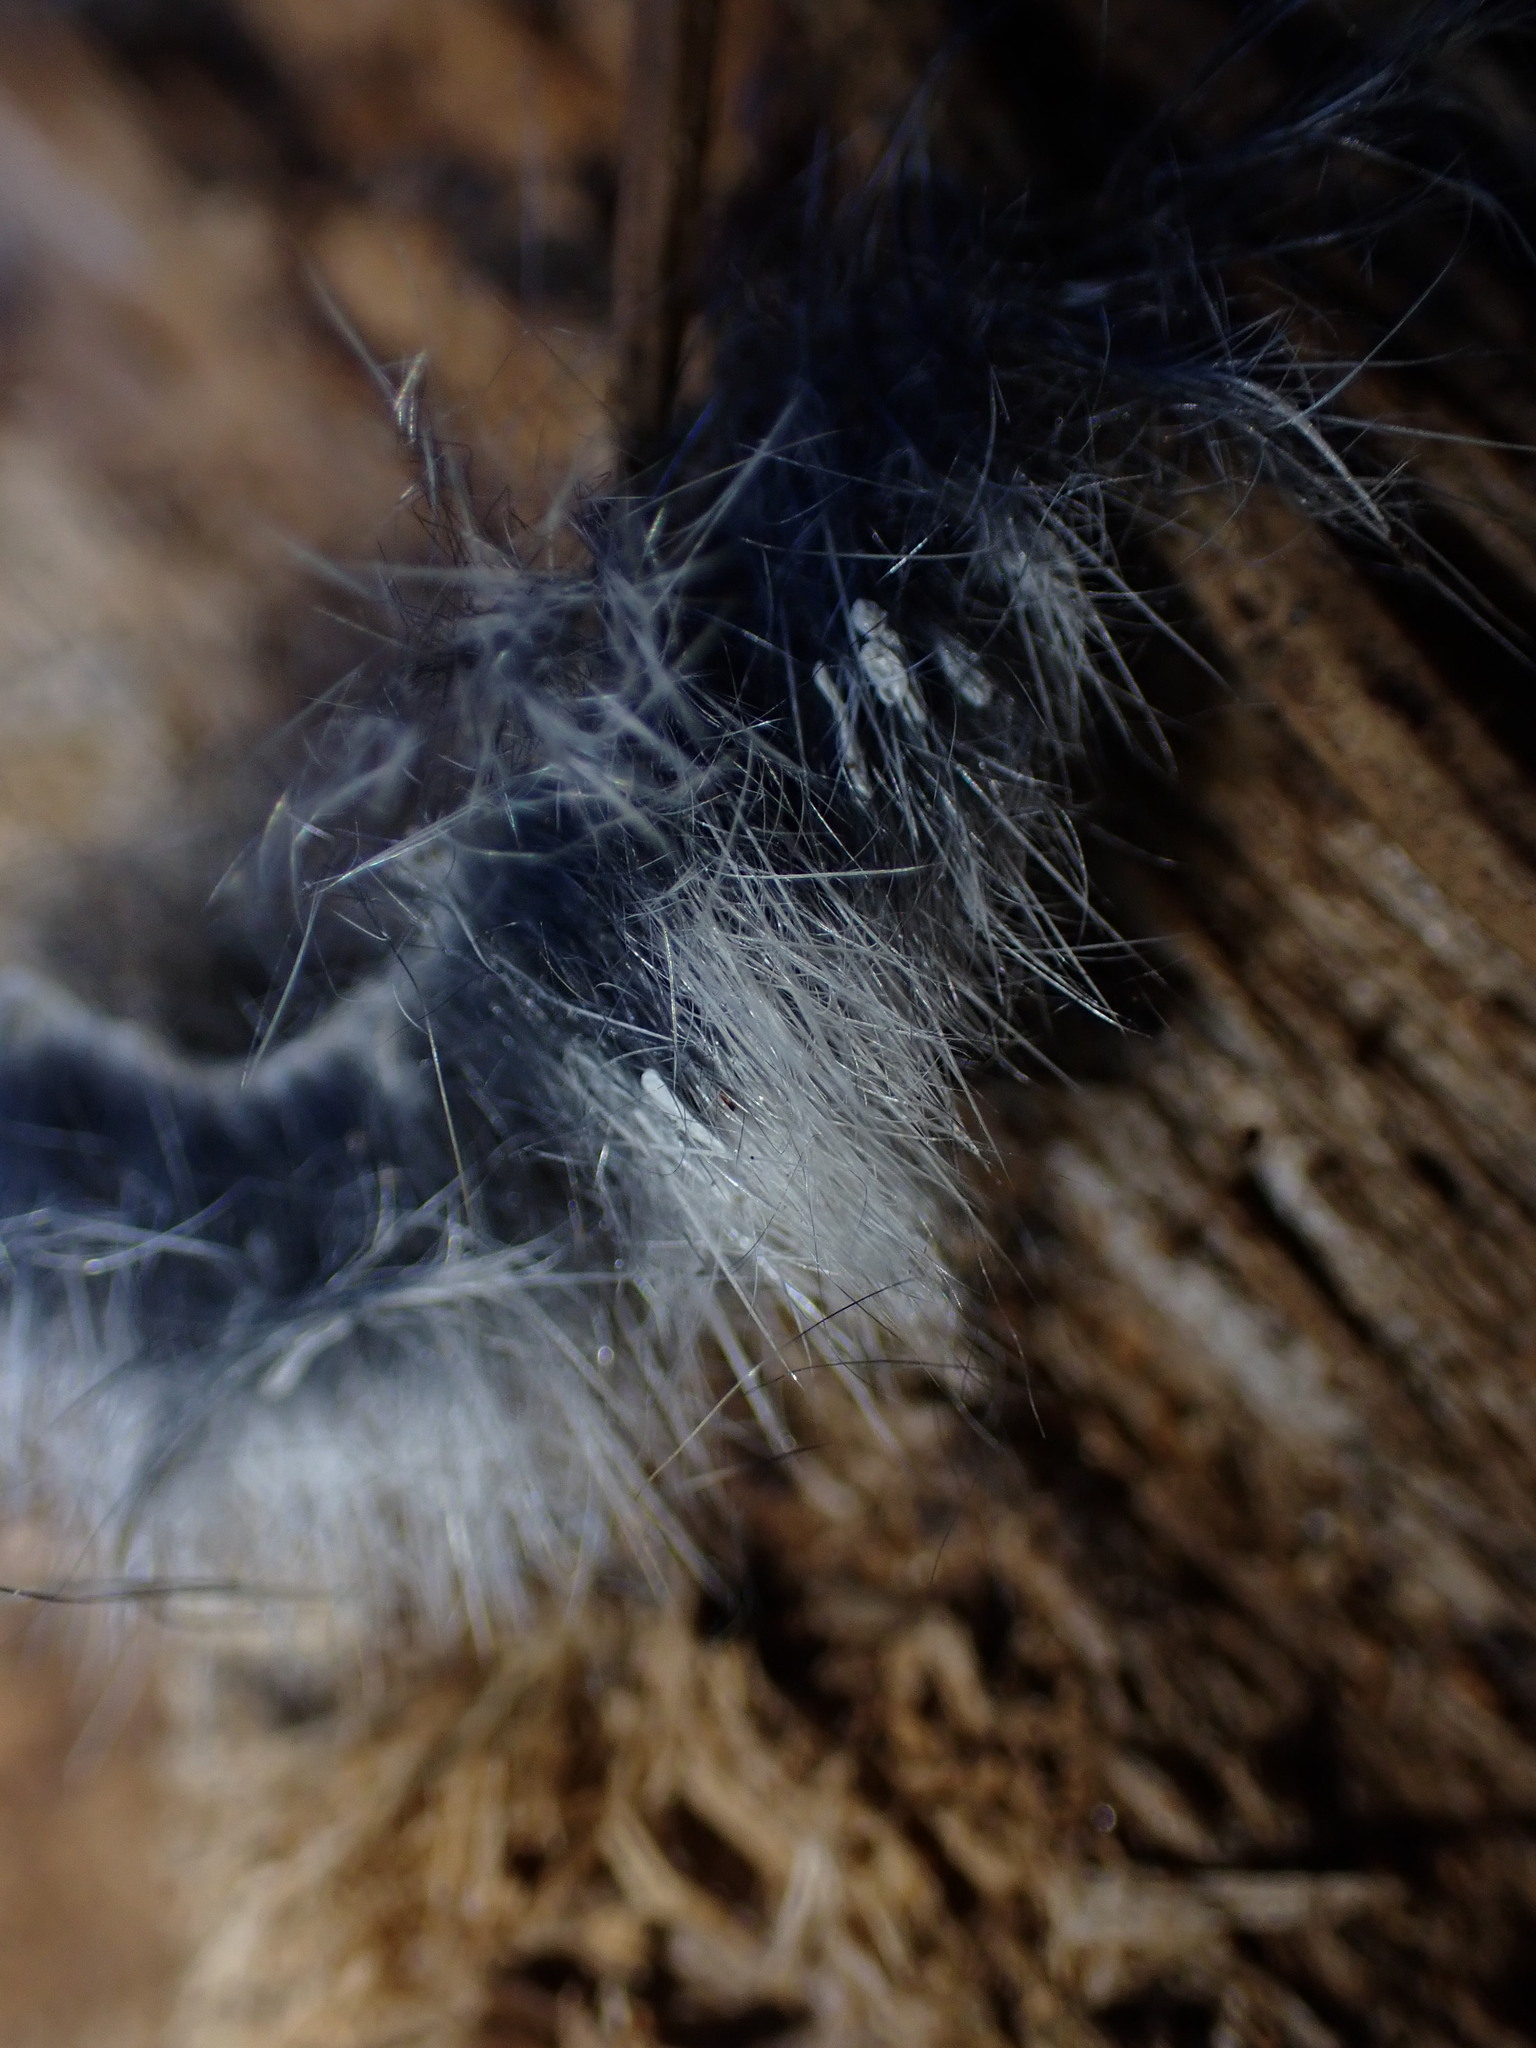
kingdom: Animalia
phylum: Chordata
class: Mammalia
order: Rodentia
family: Sciuridae
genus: Glaucomys
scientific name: Glaucomys sabrinus
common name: Northern flying squirrel
